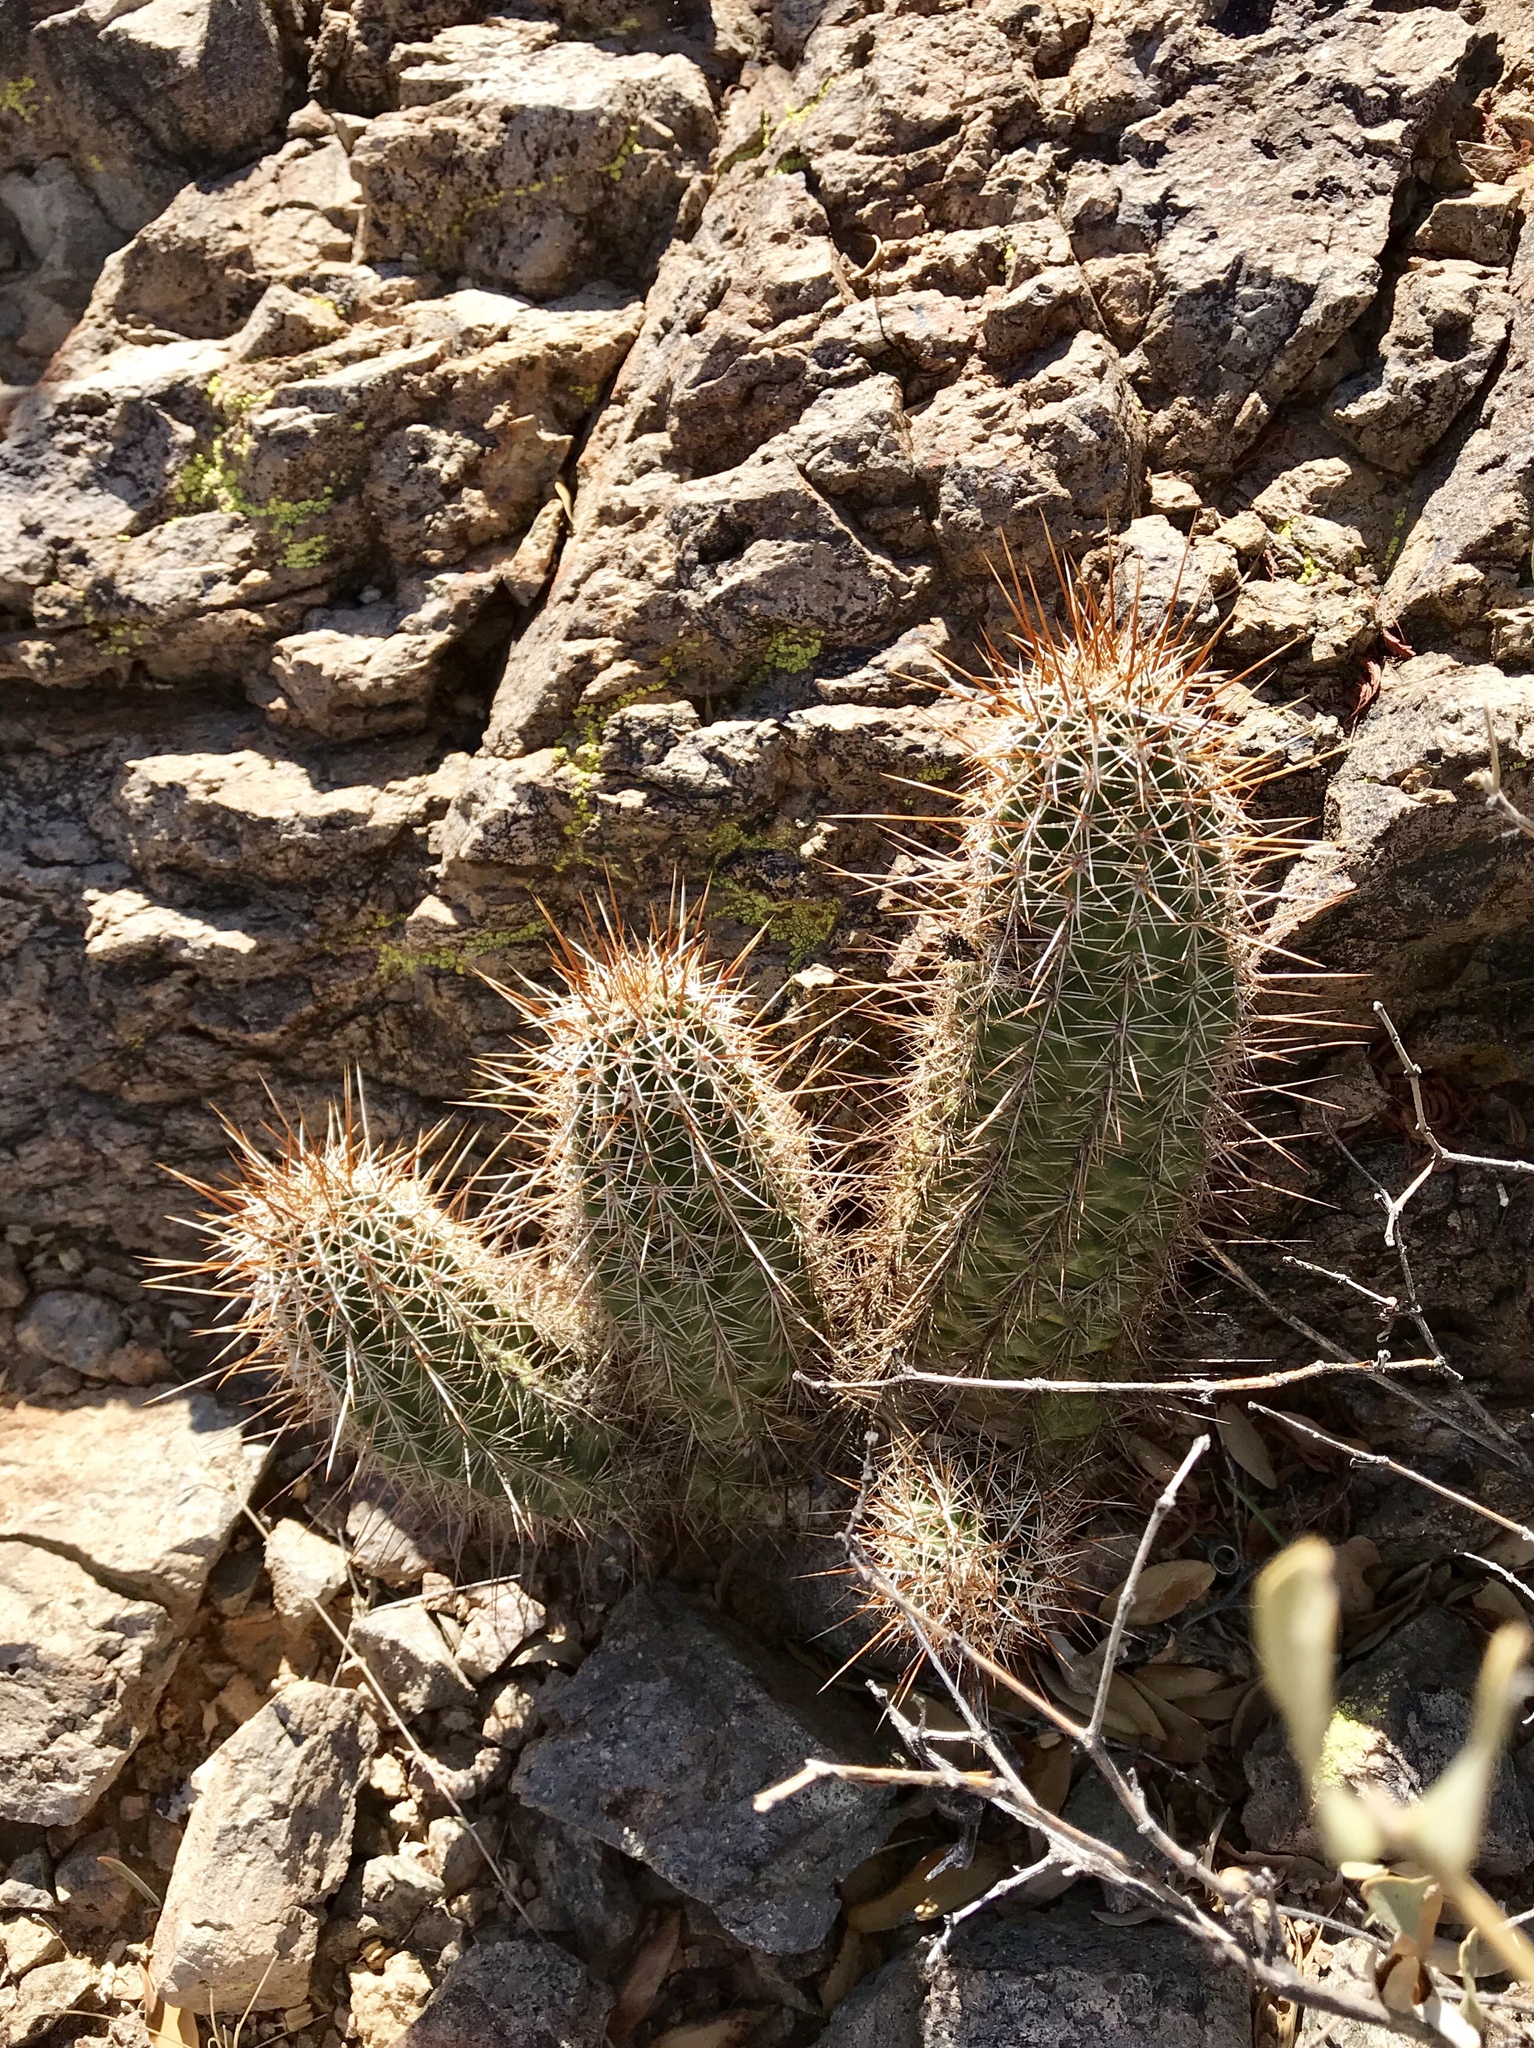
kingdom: Plantae
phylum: Tracheophyta
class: Magnoliopsida
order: Caryophyllales
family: Cactaceae
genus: Echinocereus
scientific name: Echinocereus fasciculatus
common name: Bundle hedgehog
